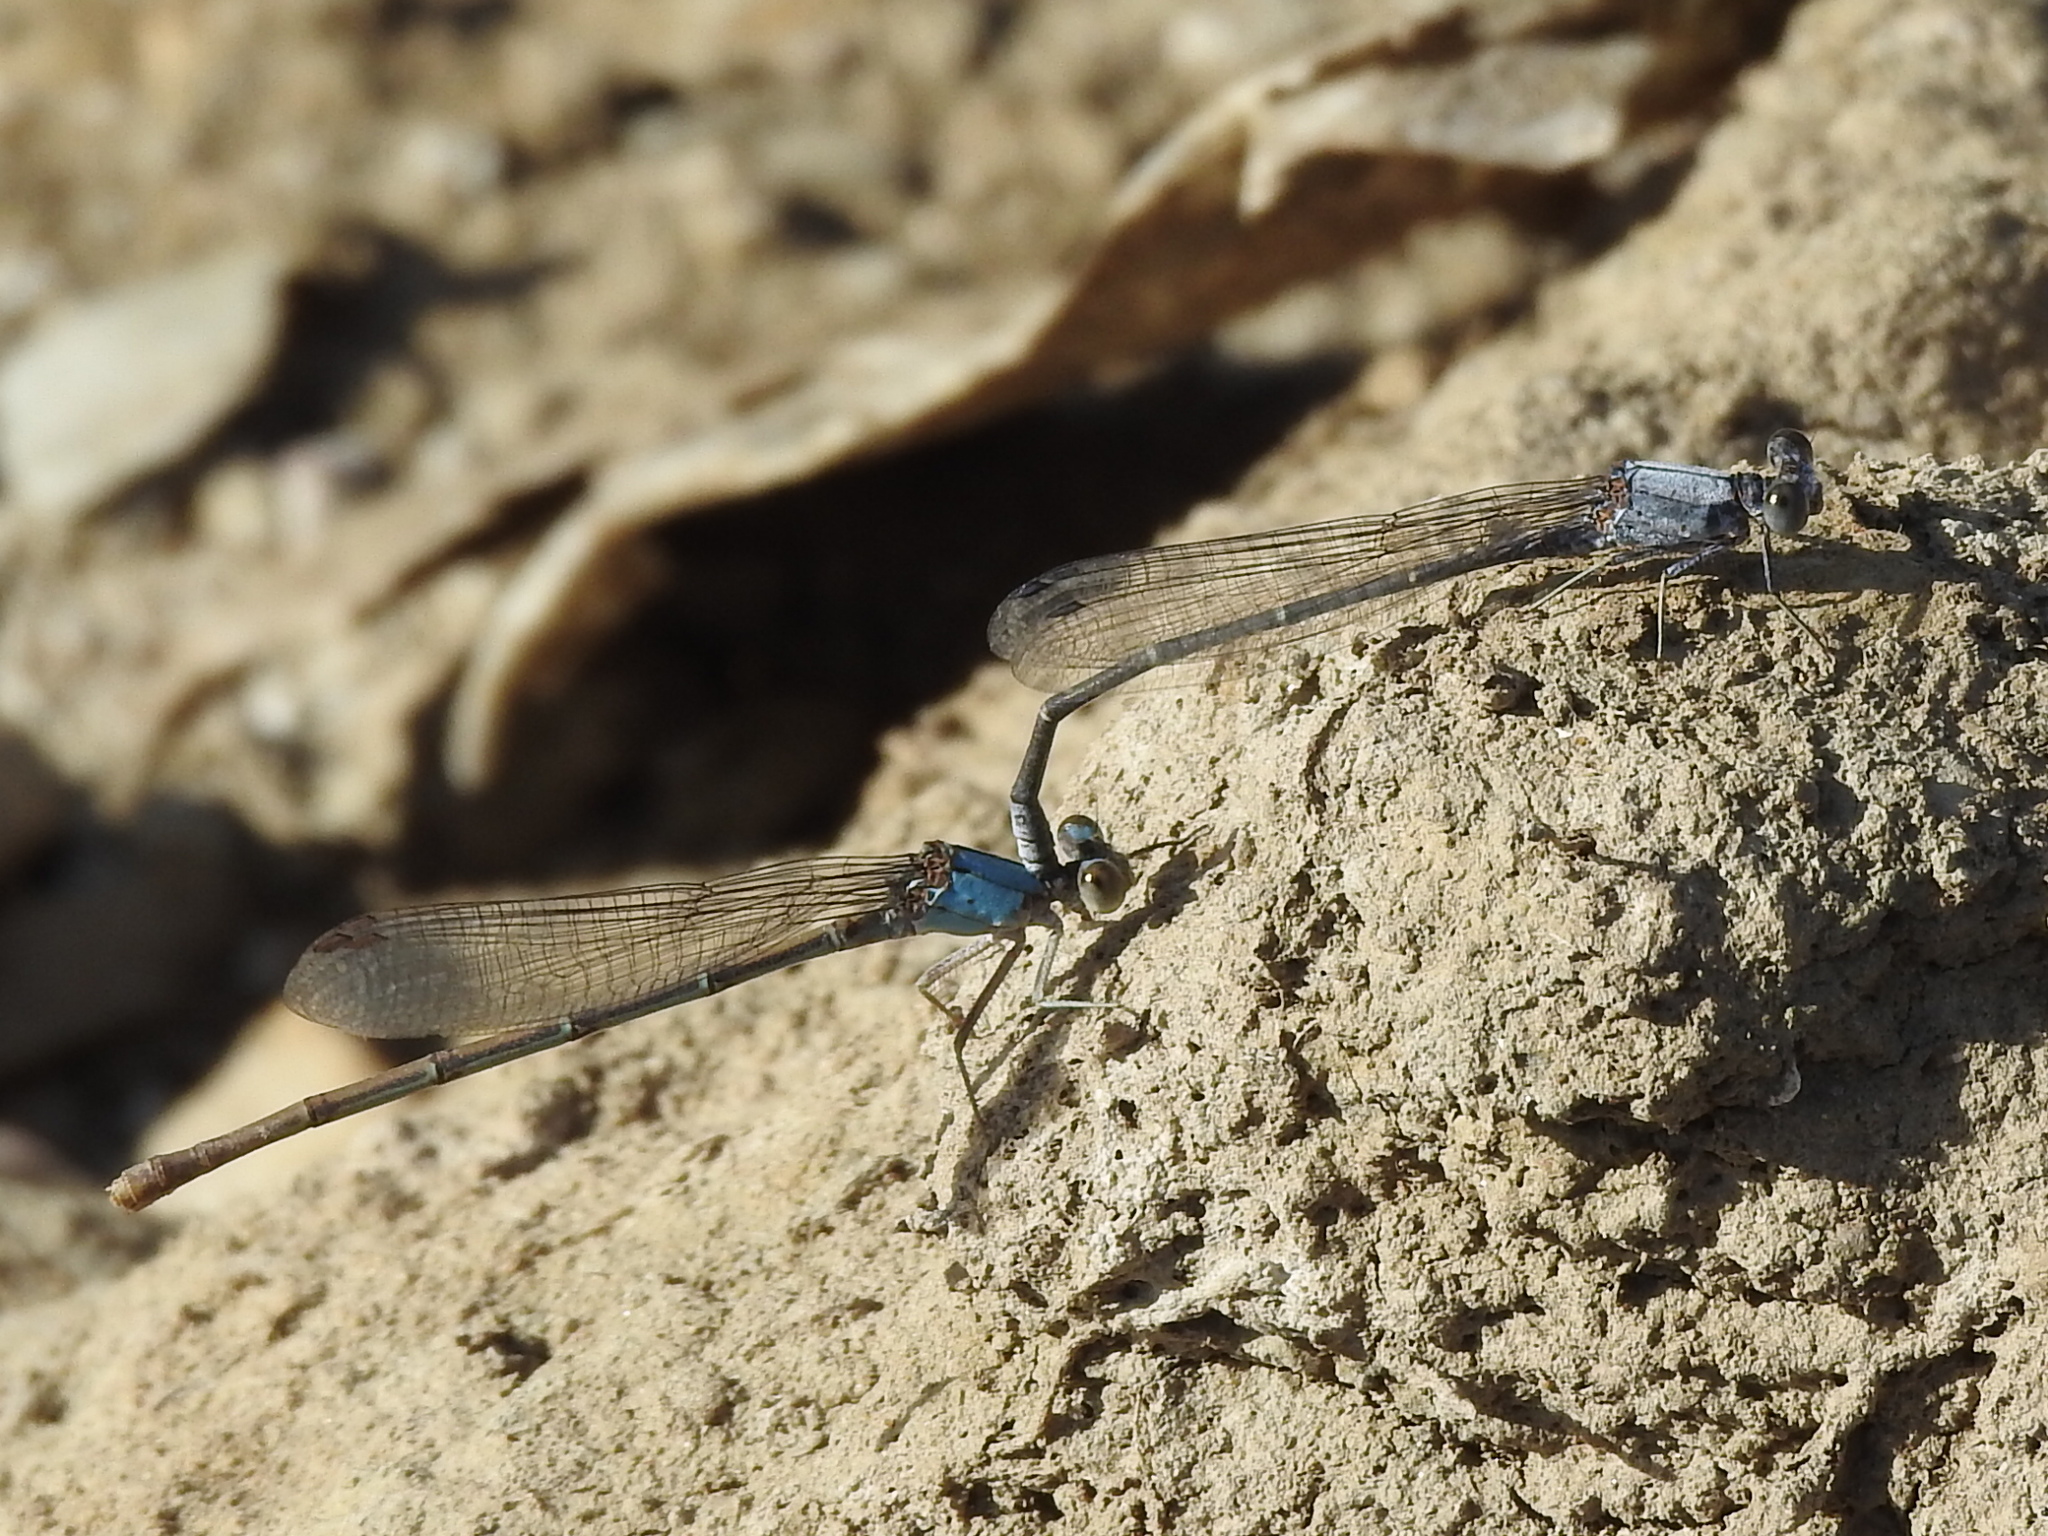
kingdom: Animalia
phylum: Arthropoda
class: Insecta
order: Odonata
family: Coenagrionidae
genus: Argia
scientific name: Argia moesta
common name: Powdered dancer
